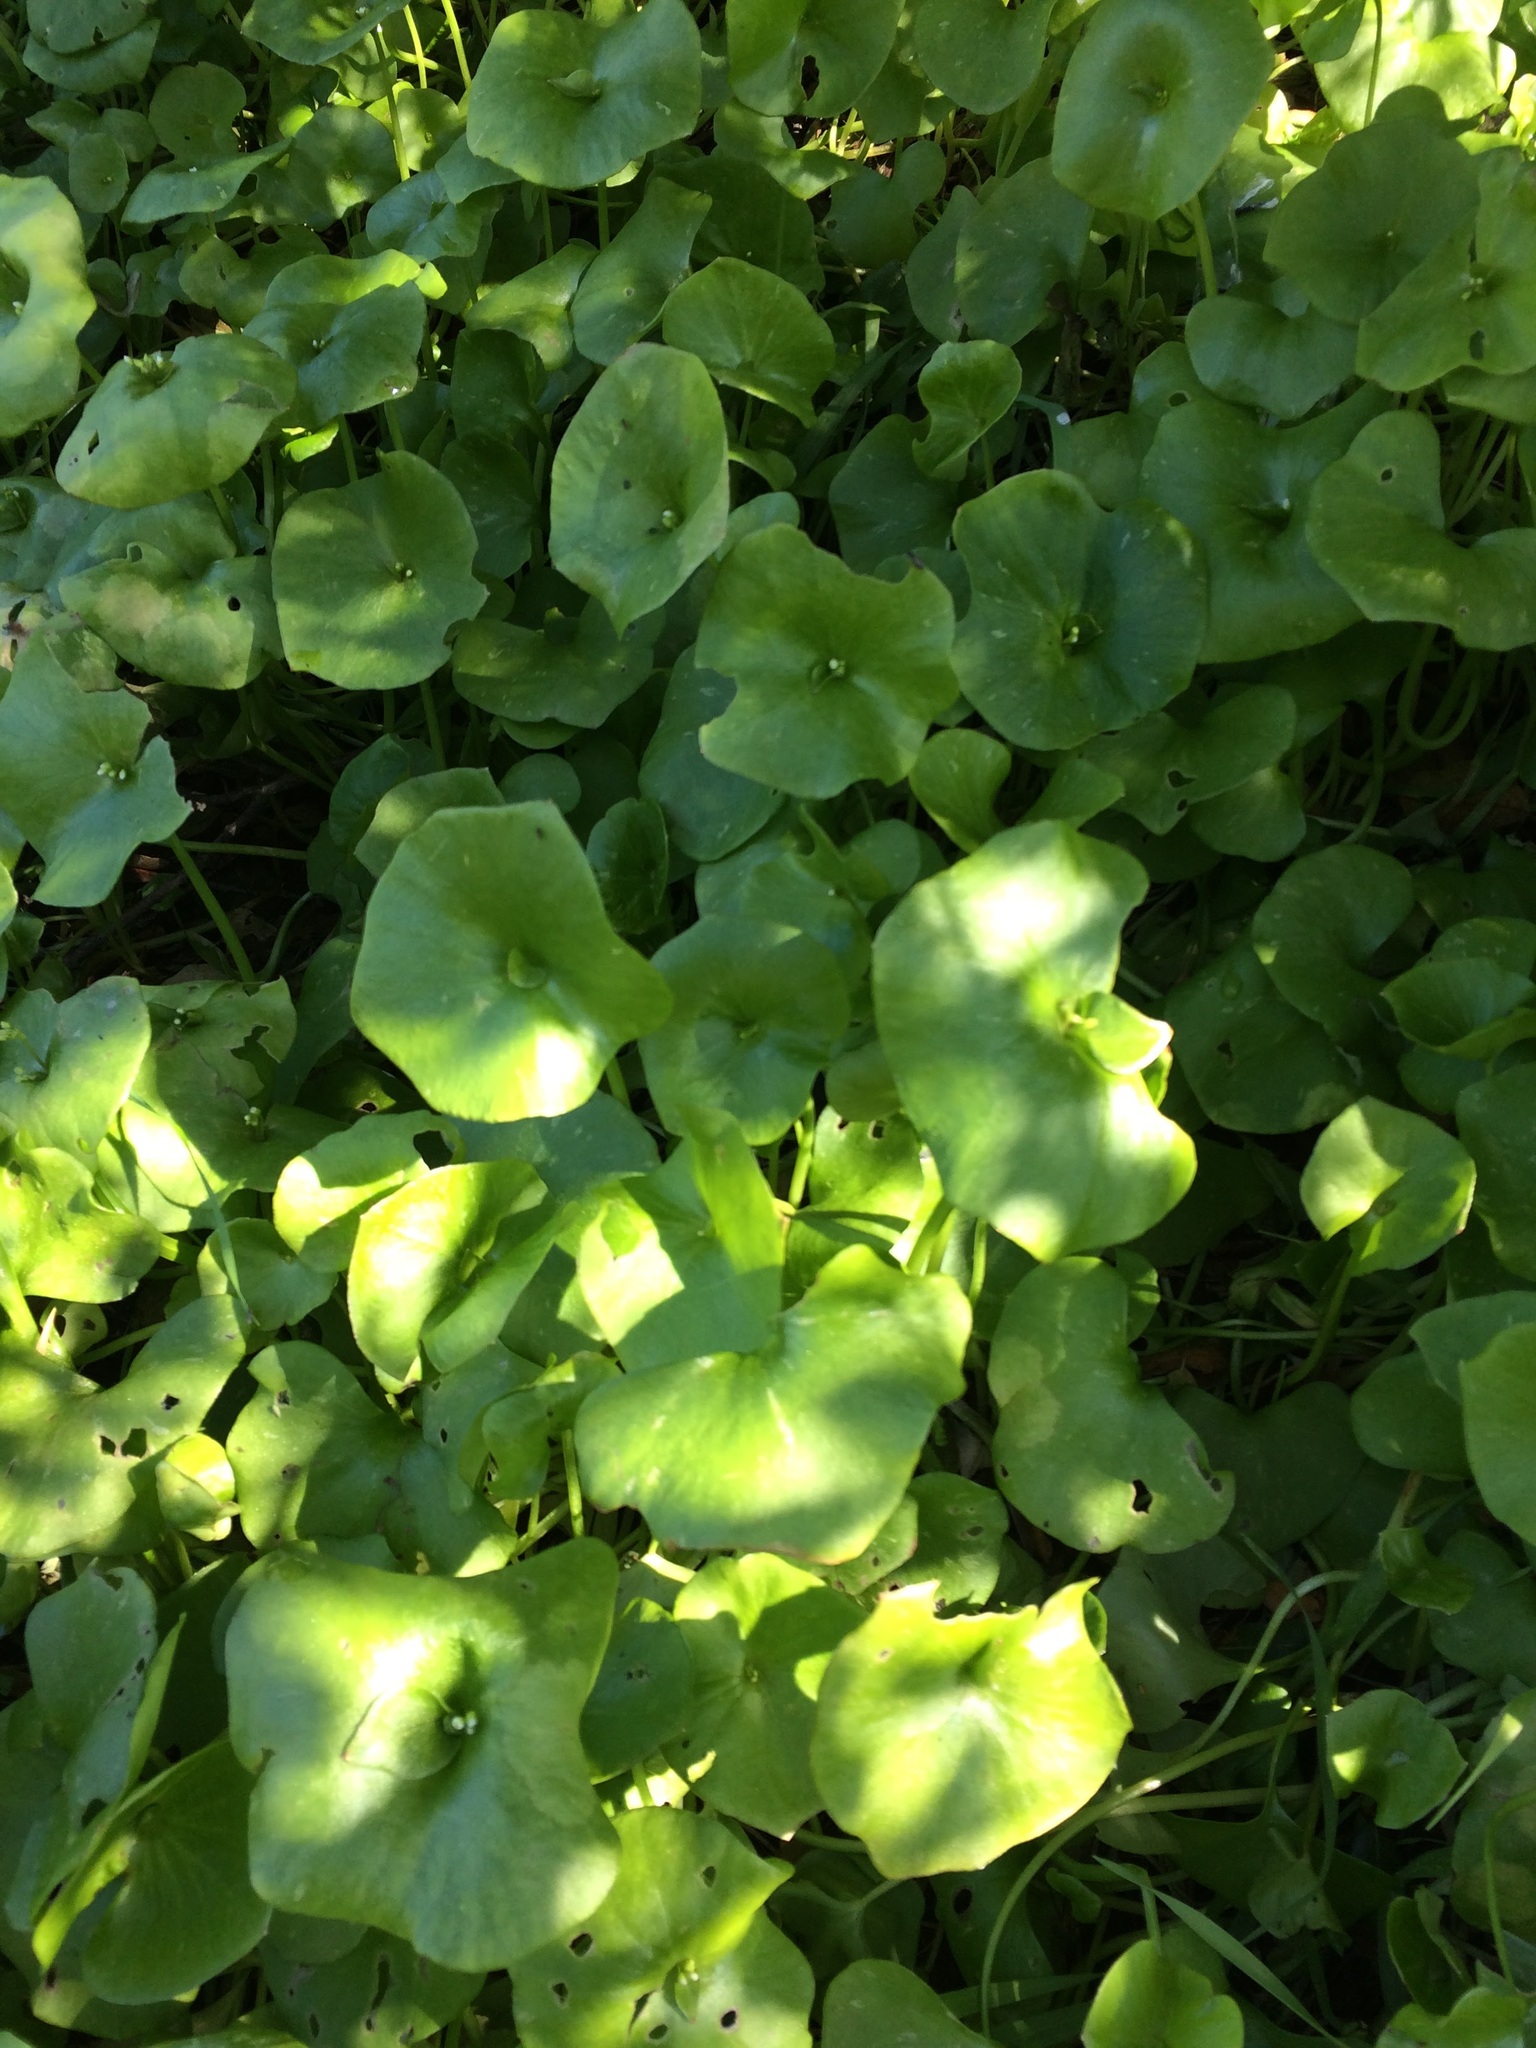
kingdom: Plantae
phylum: Tracheophyta
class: Magnoliopsida
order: Caryophyllales
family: Montiaceae
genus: Claytonia
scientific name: Claytonia perfoliata
